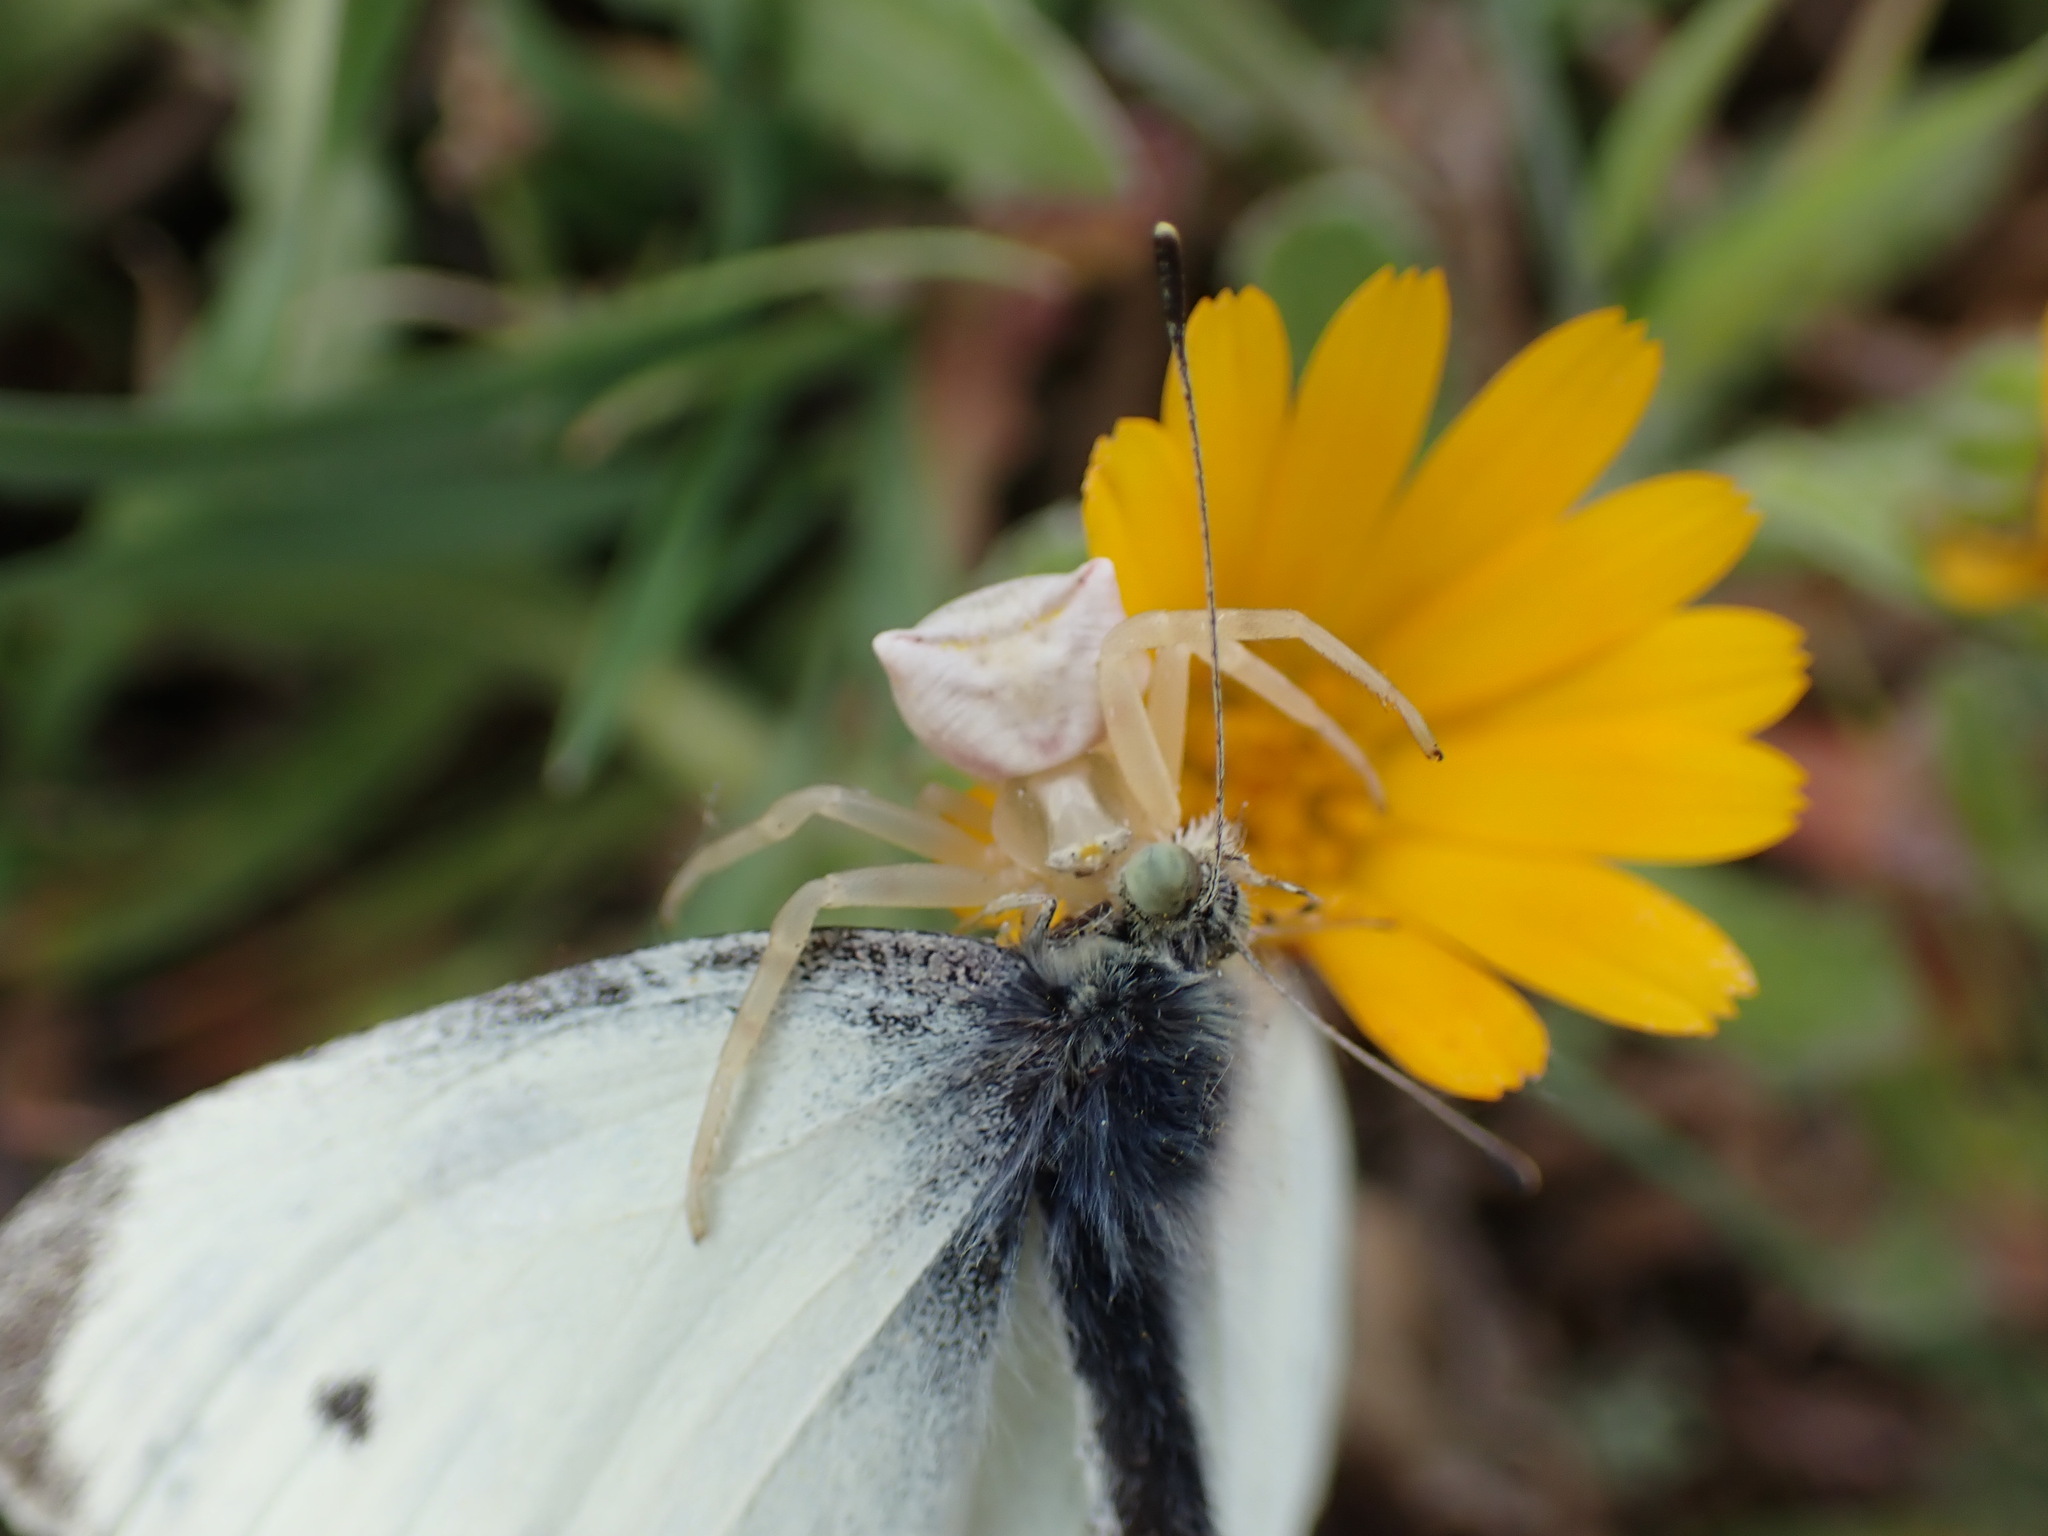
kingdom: Animalia
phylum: Arthropoda
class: Insecta
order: Lepidoptera
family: Pieridae
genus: Pieris
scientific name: Pieris rapae
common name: Small white
